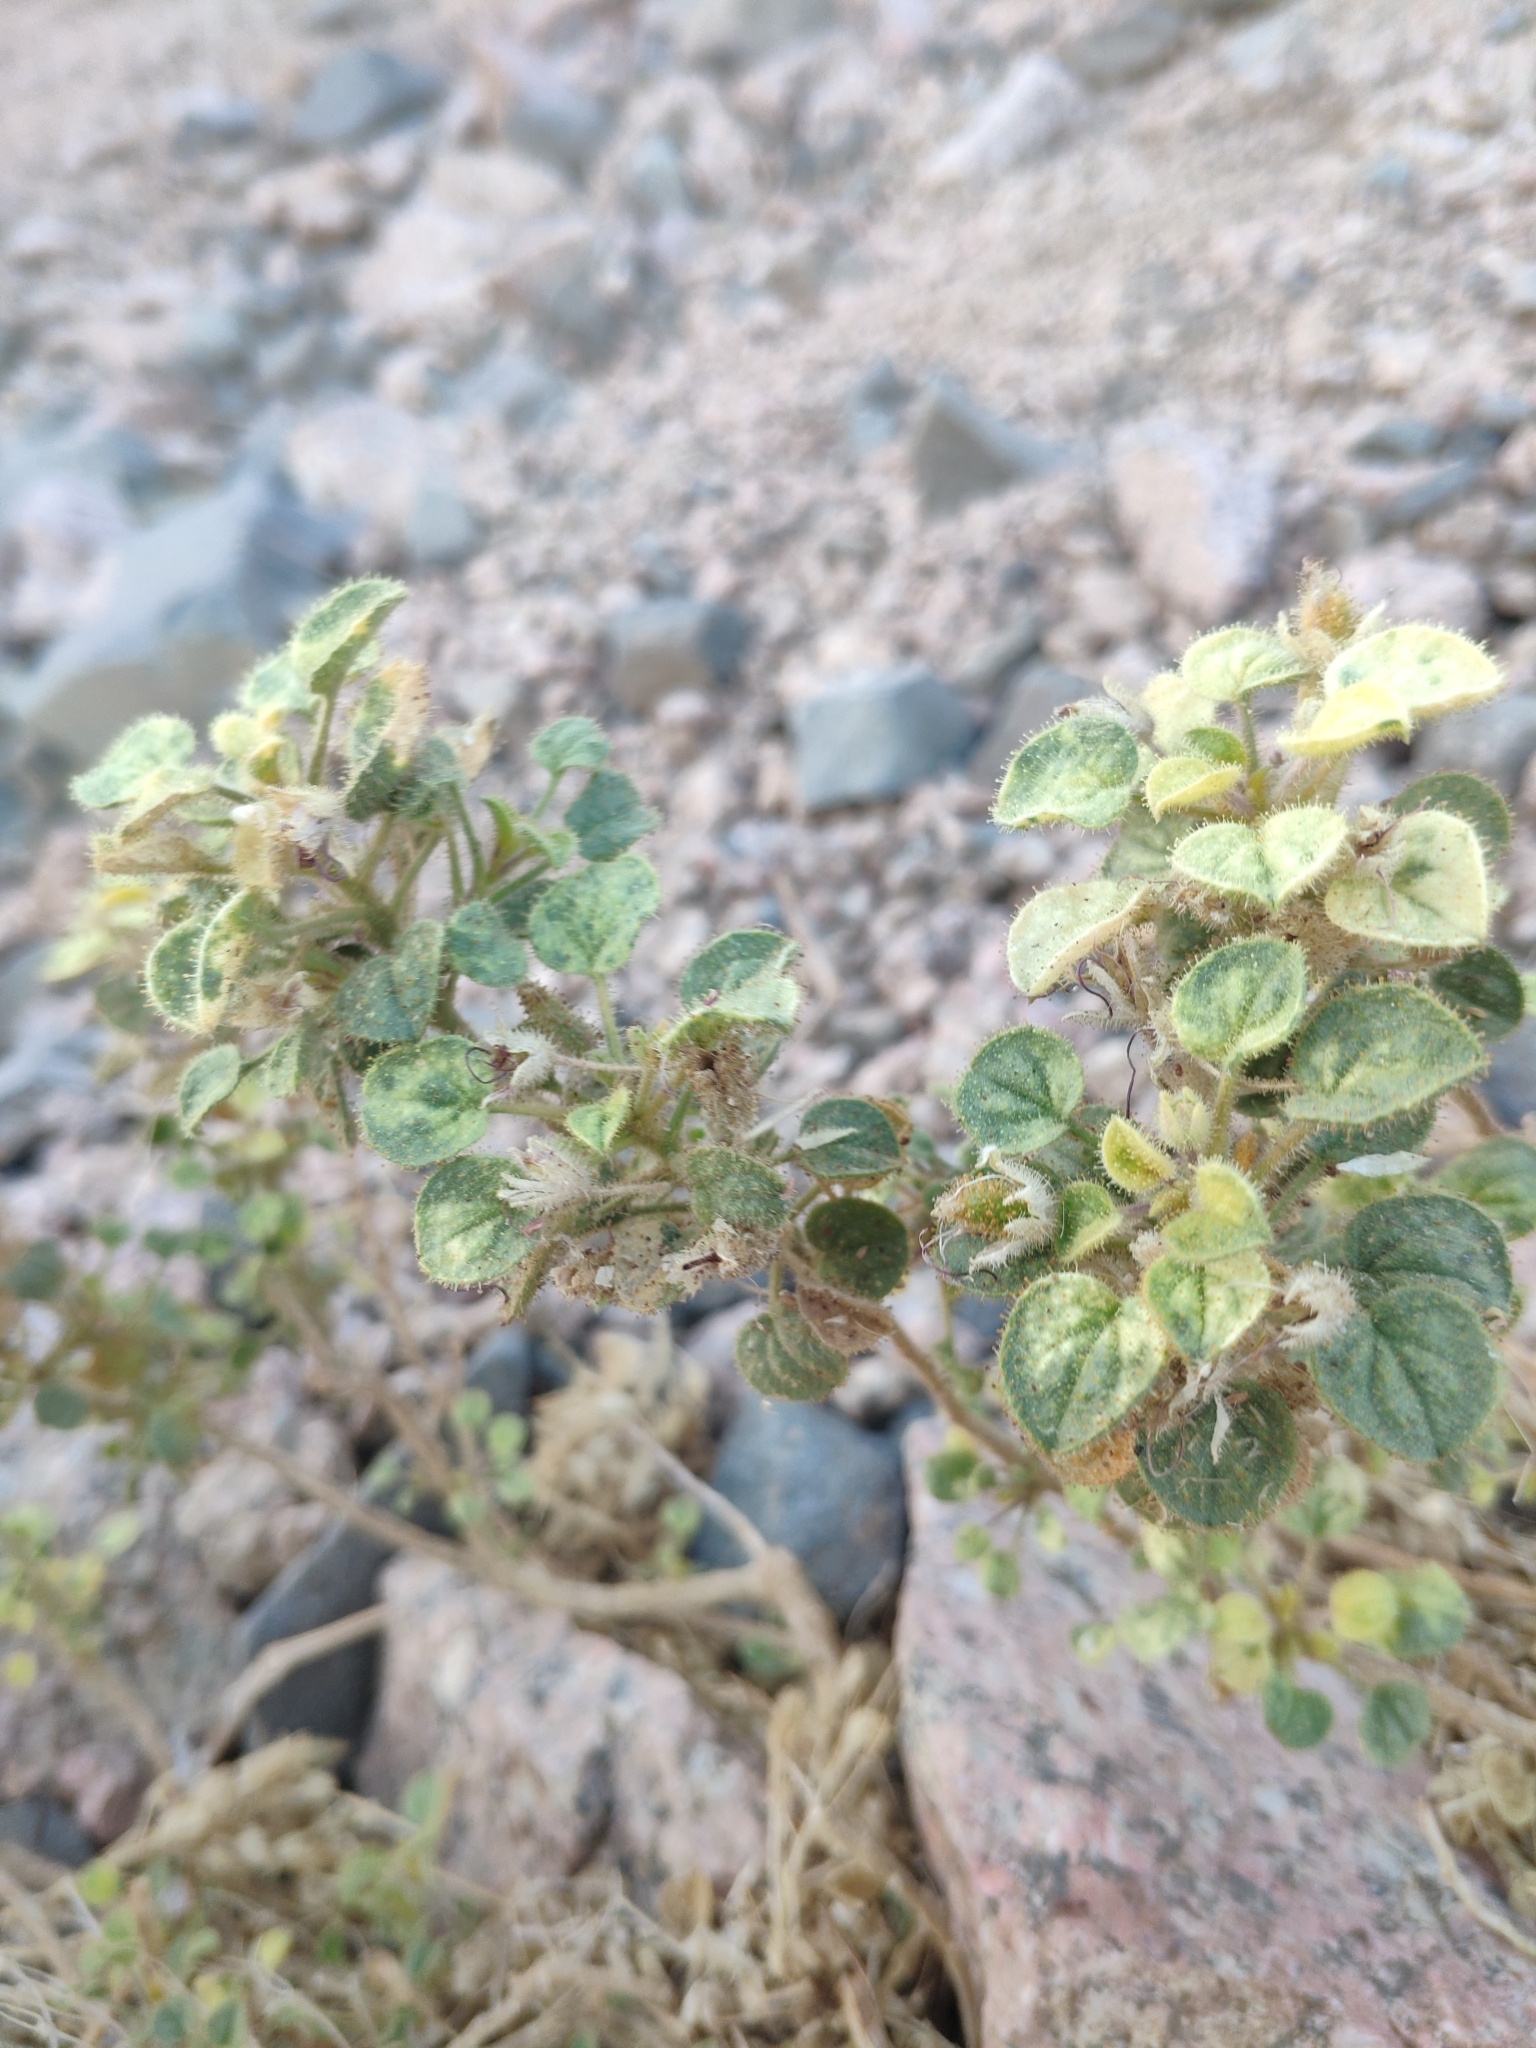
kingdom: Plantae
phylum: Tracheophyta
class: Magnoliopsida
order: Brassicales
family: Cleomaceae
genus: Rorida
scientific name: Rorida droserifolia
